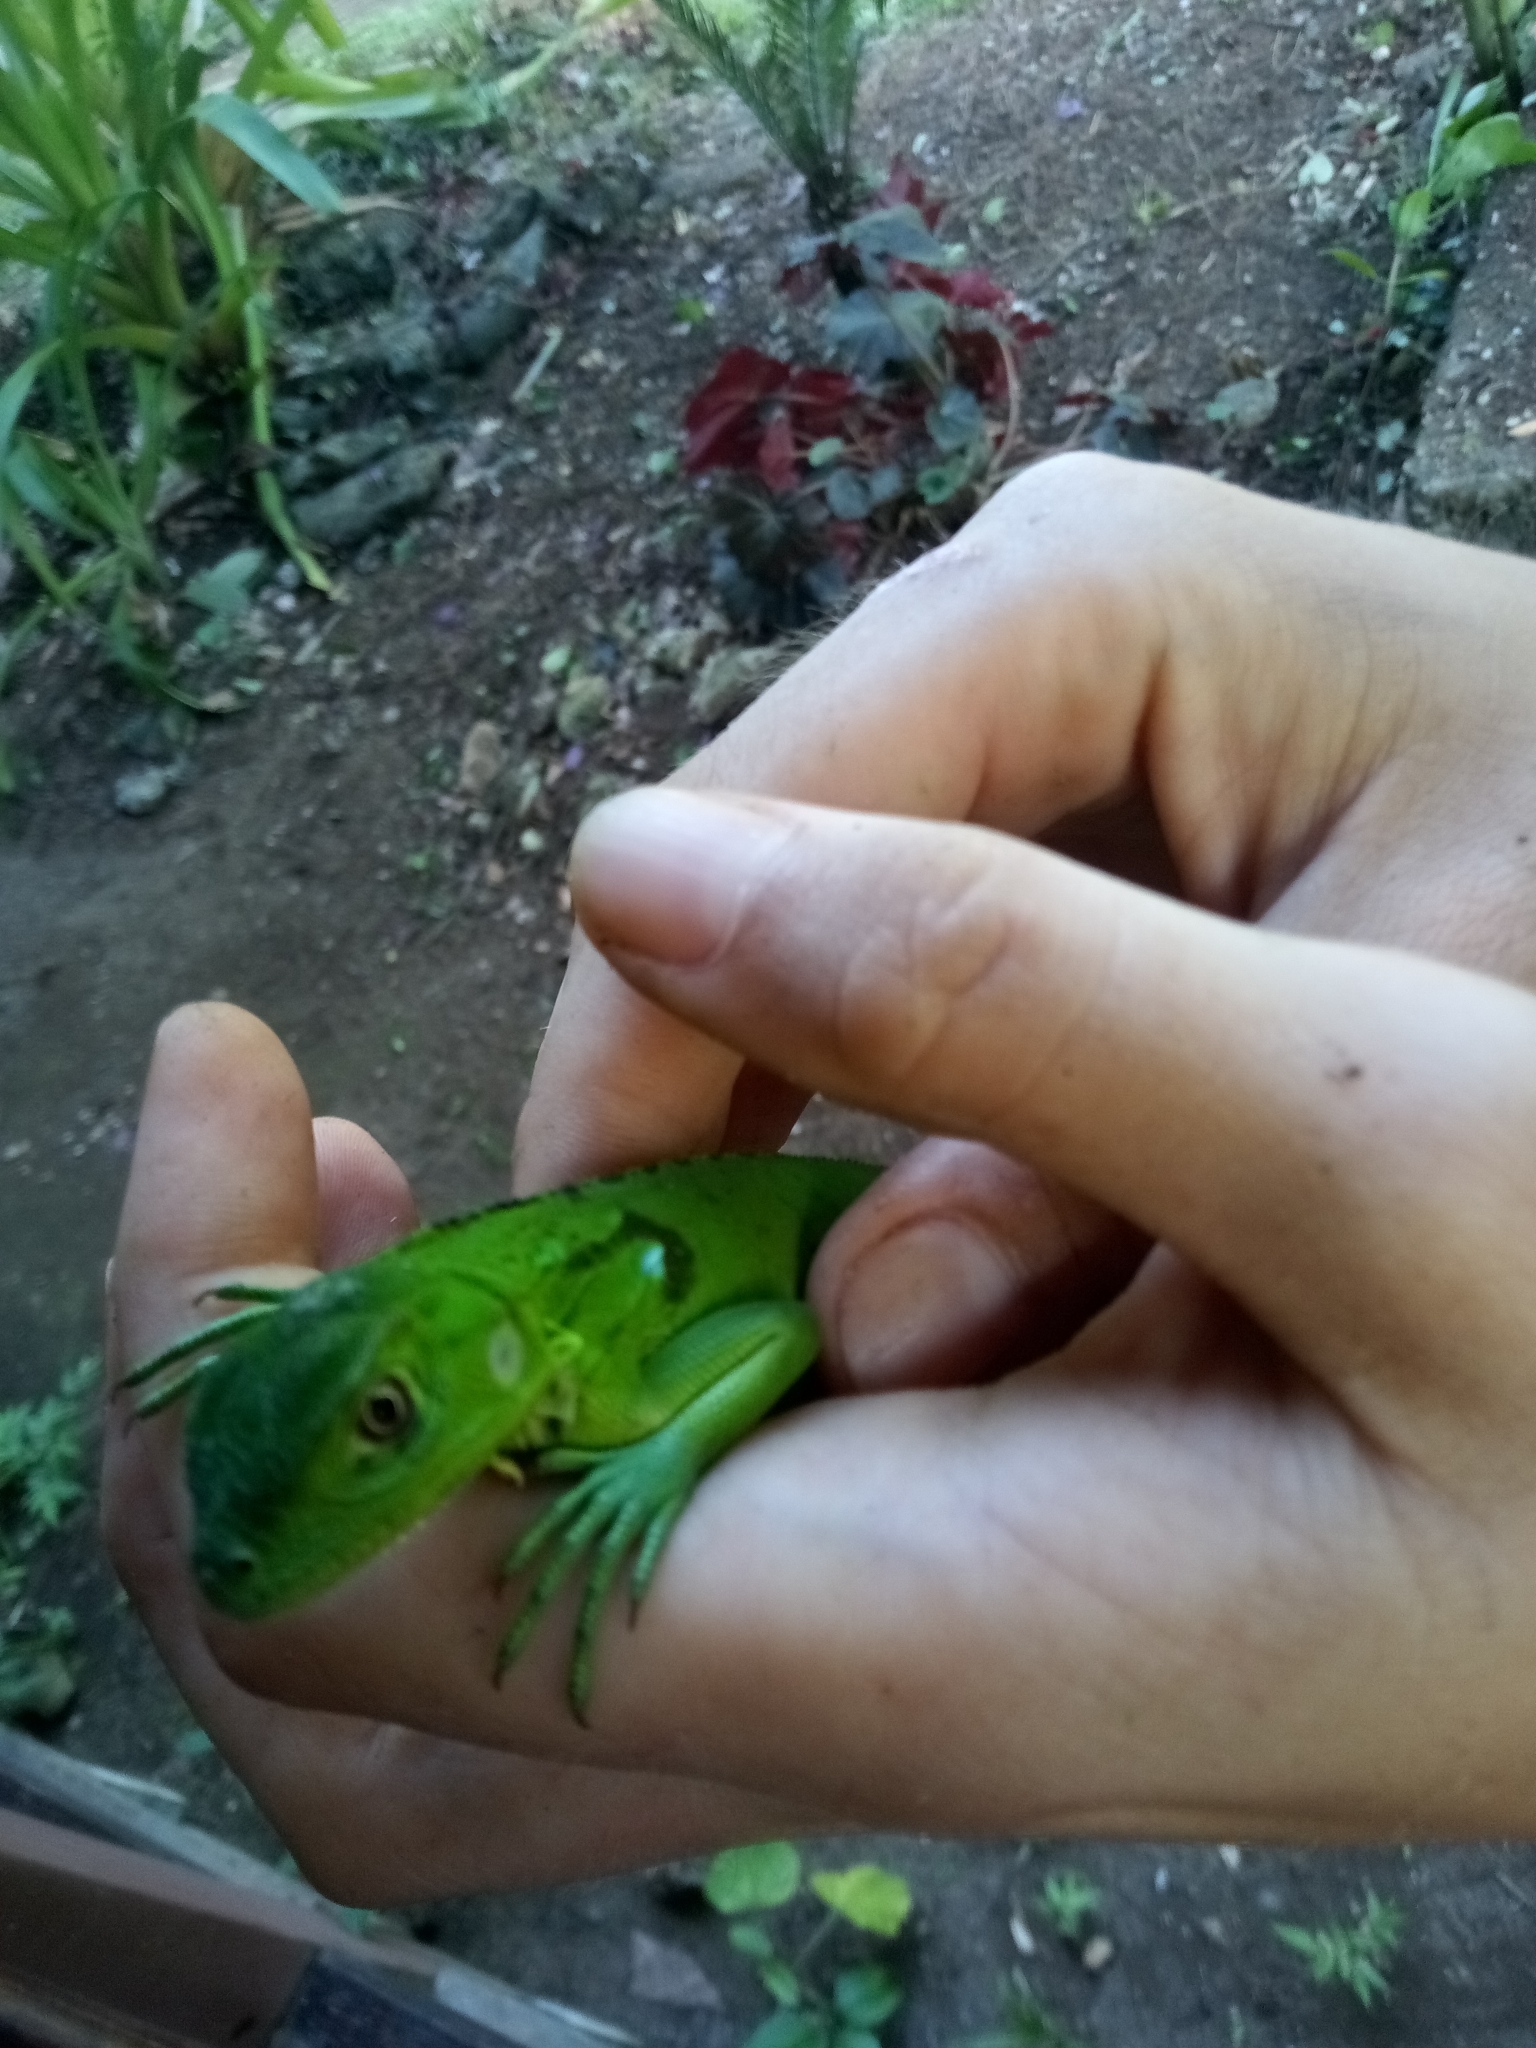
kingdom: Animalia
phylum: Chordata
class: Squamata
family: Iguanidae
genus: Iguana
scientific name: Iguana iguana
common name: Green iguana
